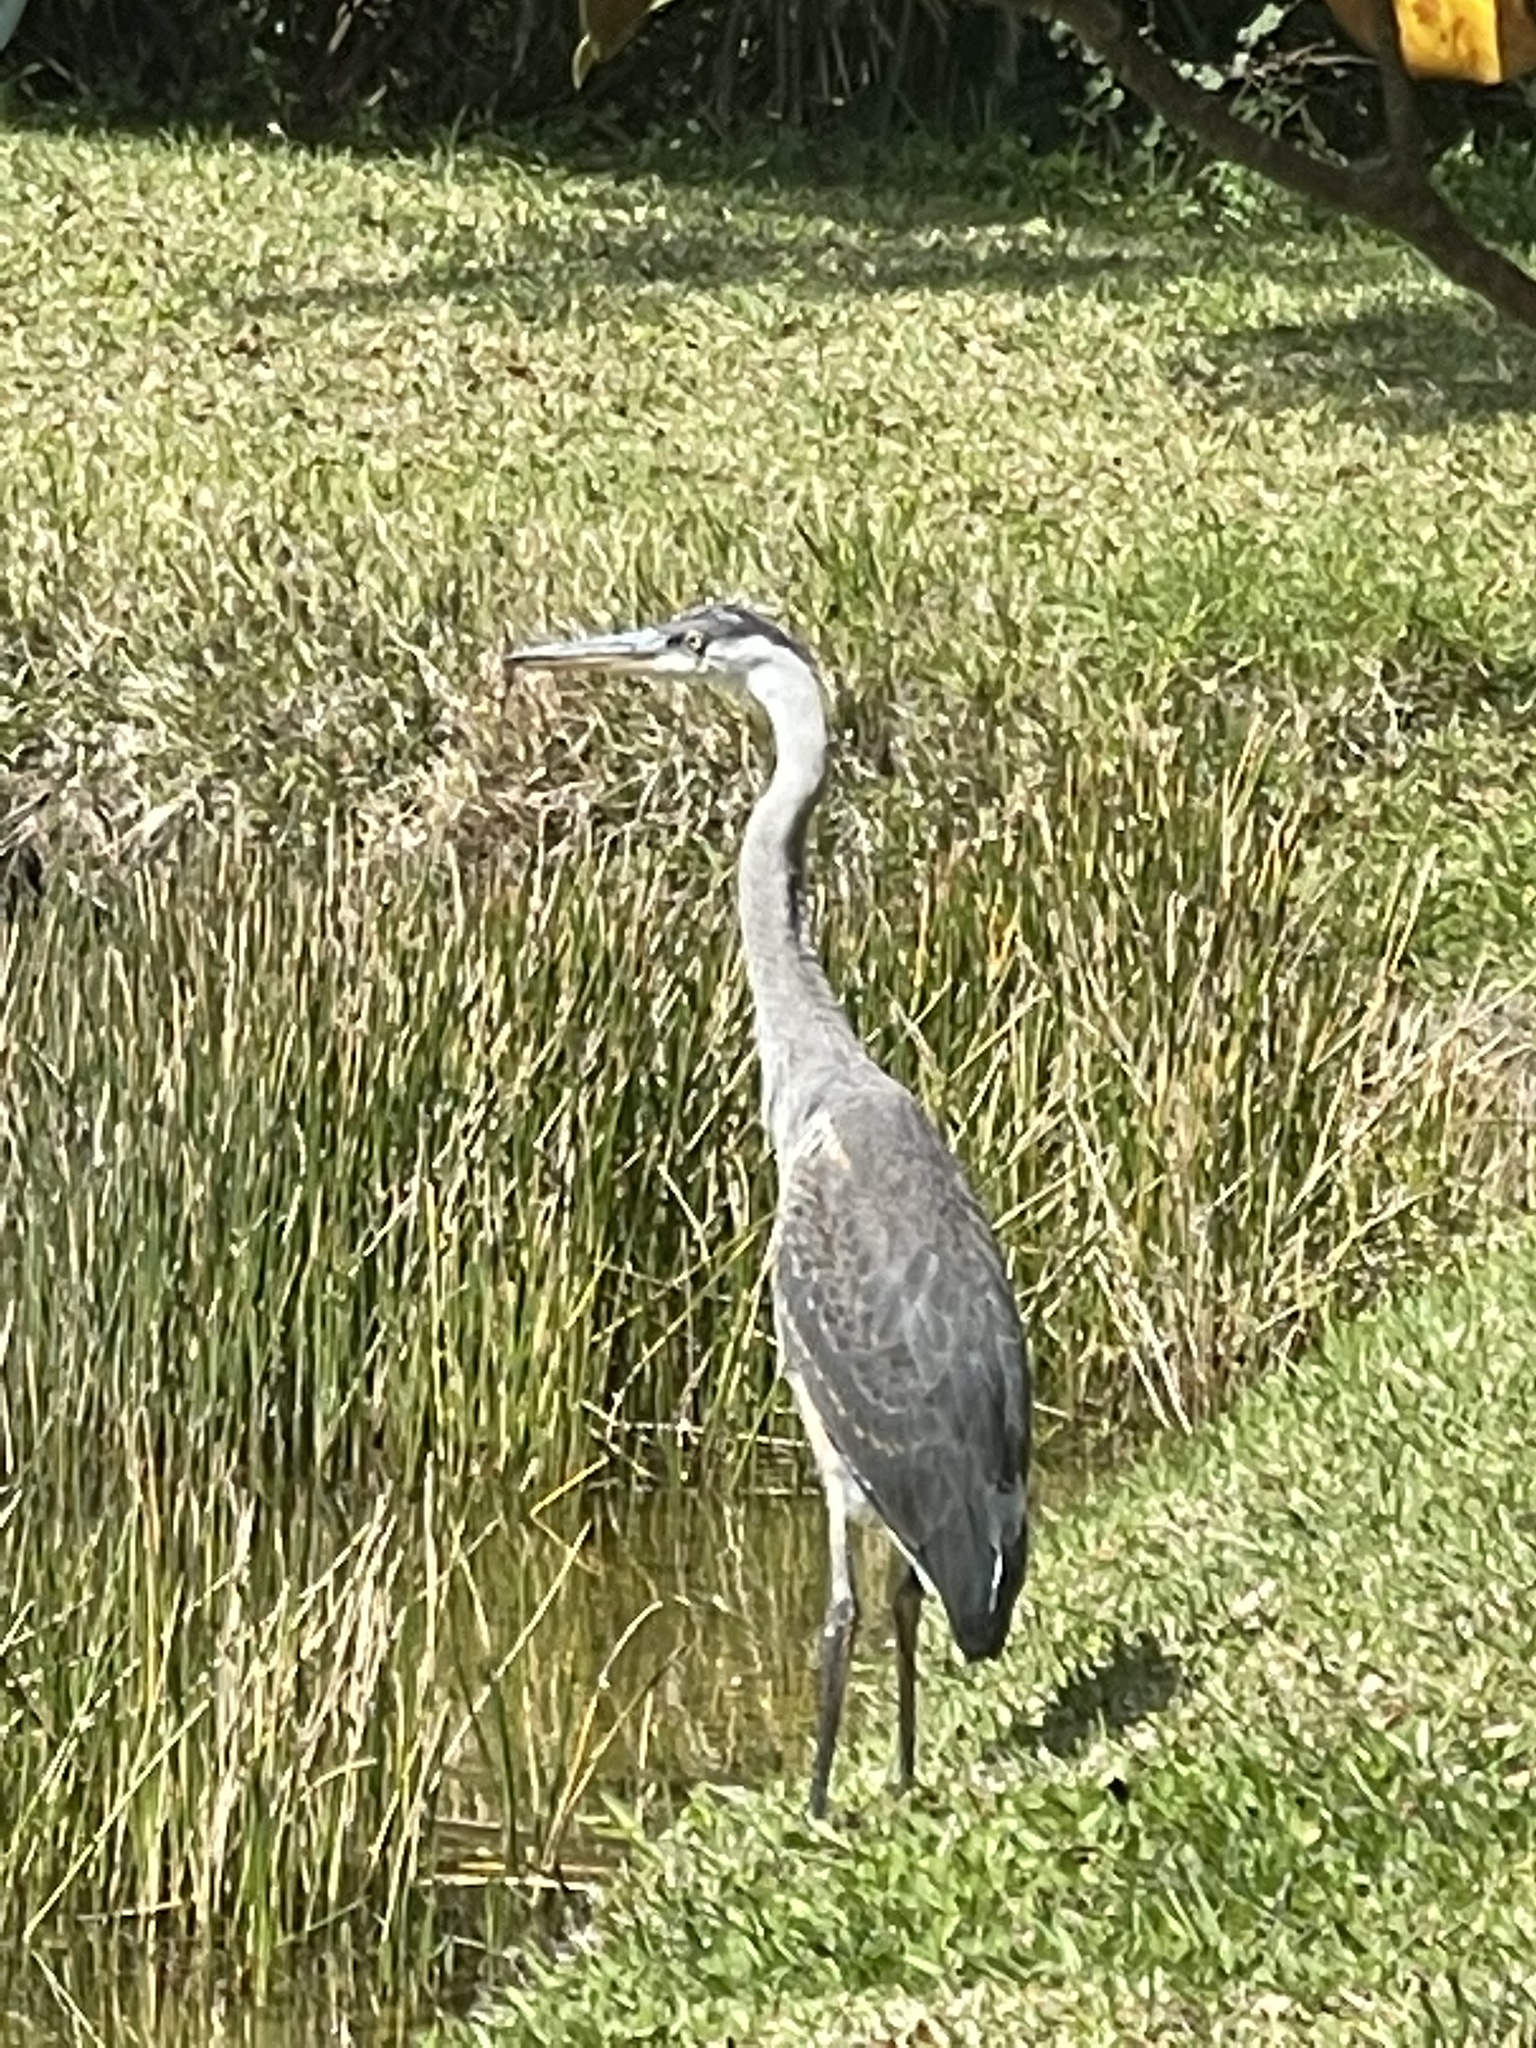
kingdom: Animalia
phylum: Chordata
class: Aves
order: Pelecaniformes
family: Ardeidae
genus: Ardea
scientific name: Ardea herodias
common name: Great blue heron
